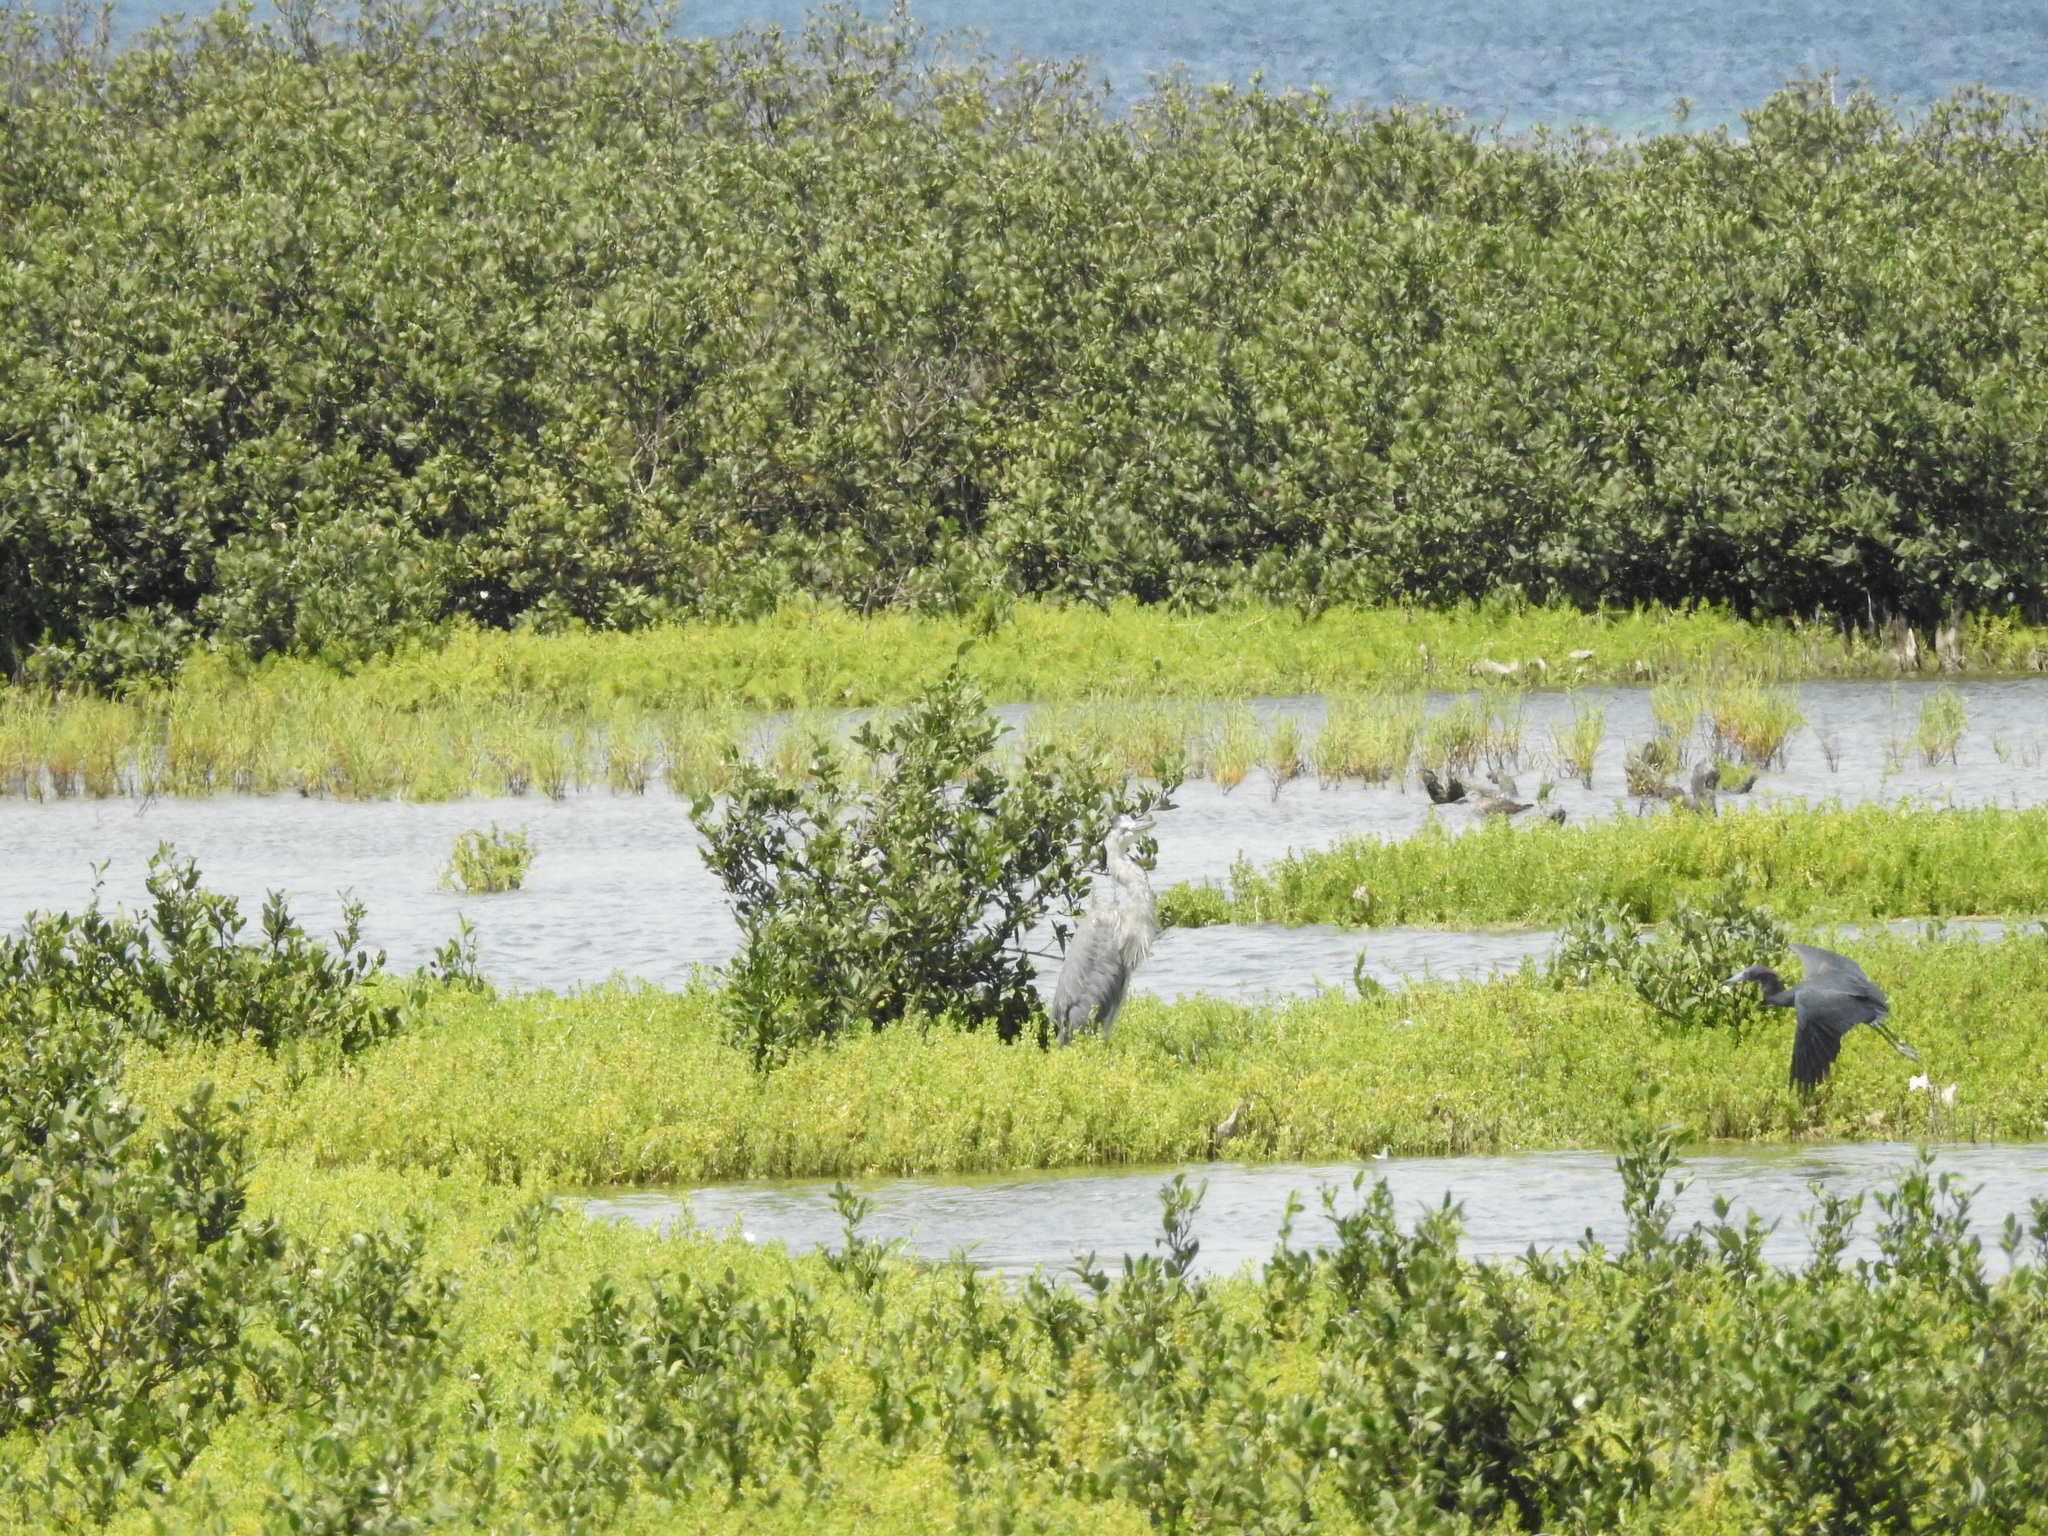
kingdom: Animalia
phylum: Chordata
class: Aves
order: Pelecaniformes
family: Ardeidae
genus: Ardea
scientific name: Ardea herodias
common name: Great blue heron
